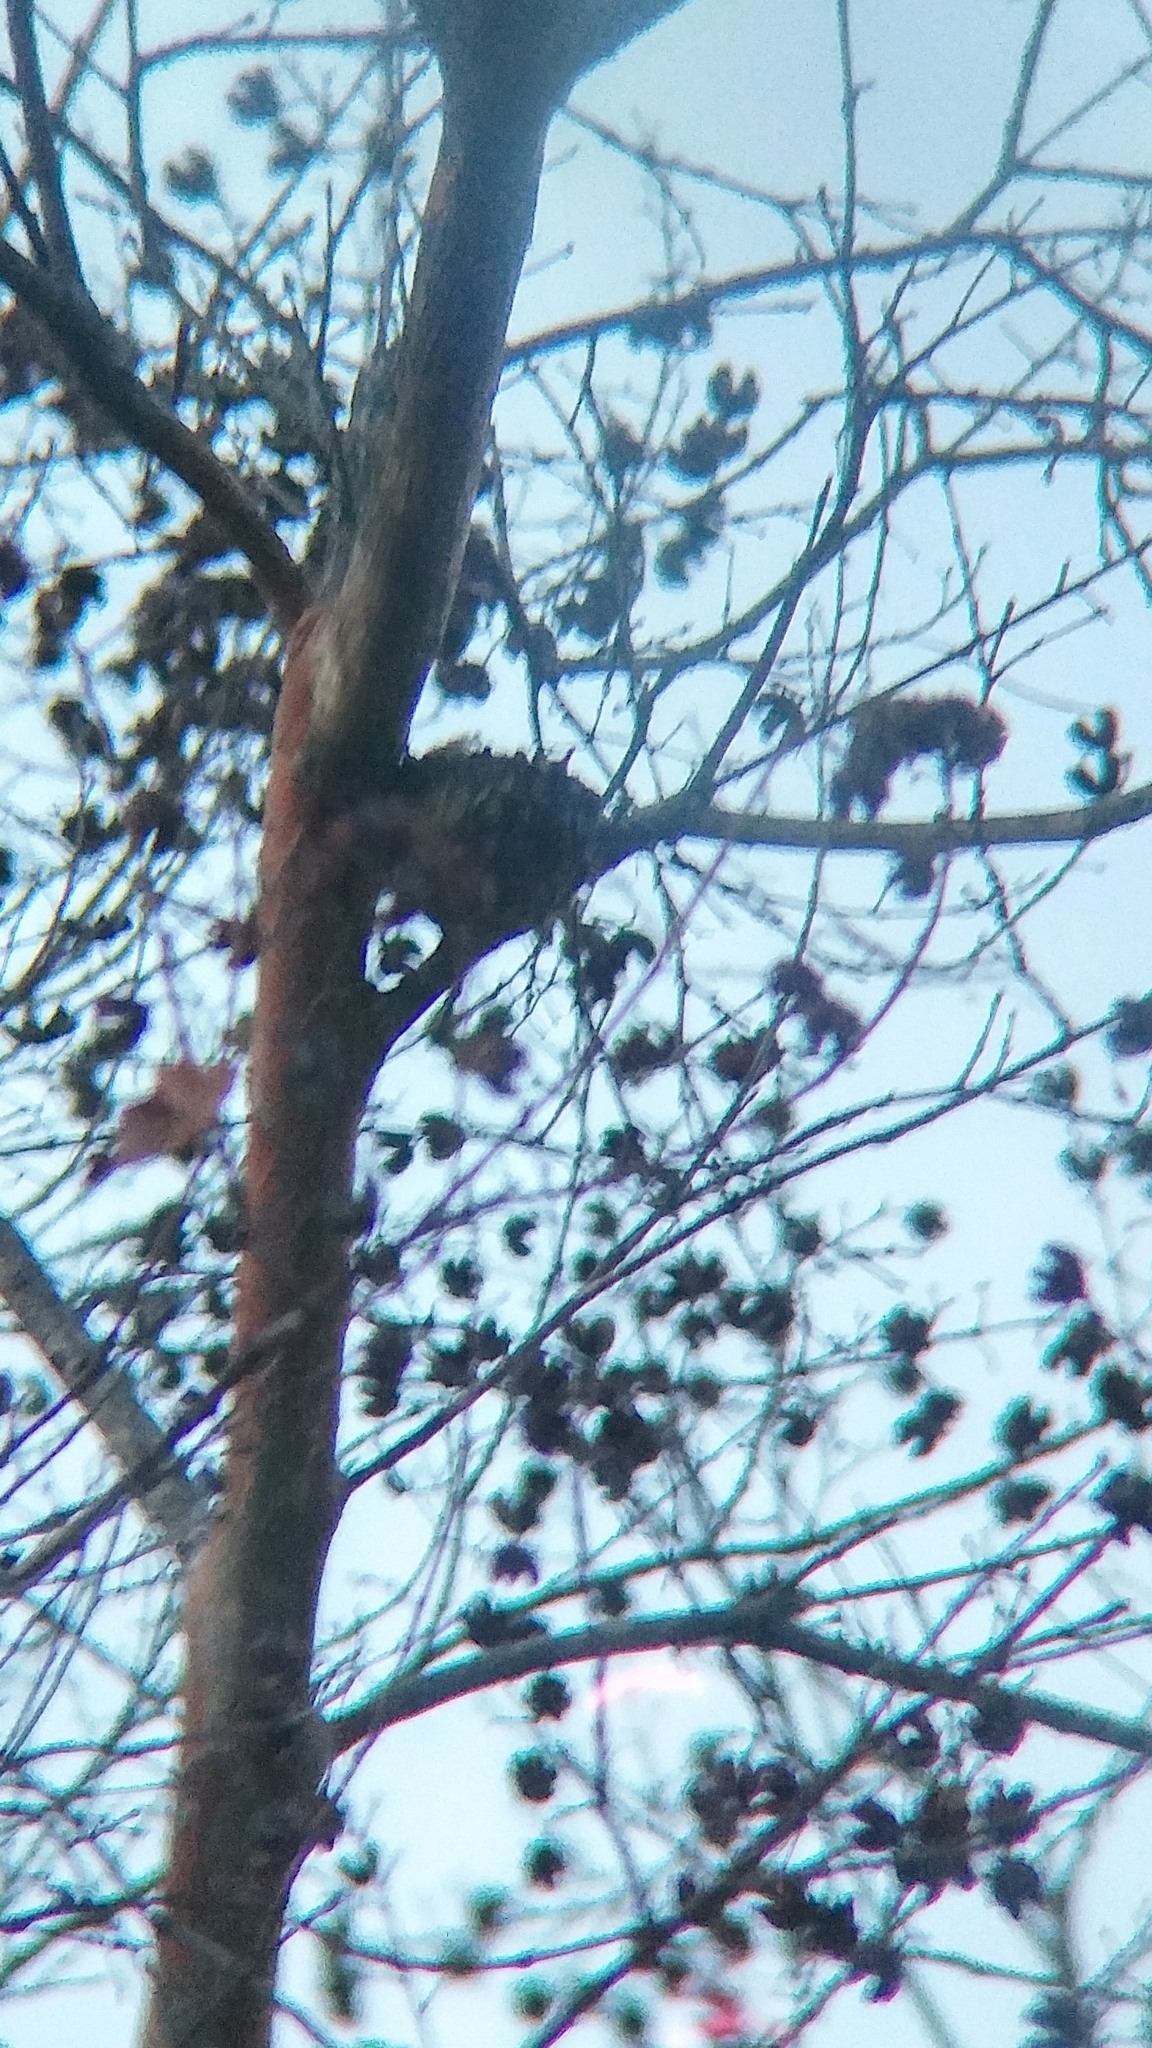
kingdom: Animalia
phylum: Chordata
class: Aves
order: Apodiformes
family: Trochilidae
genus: Calypte
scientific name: Calypte anna
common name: Anna's hummingbird
